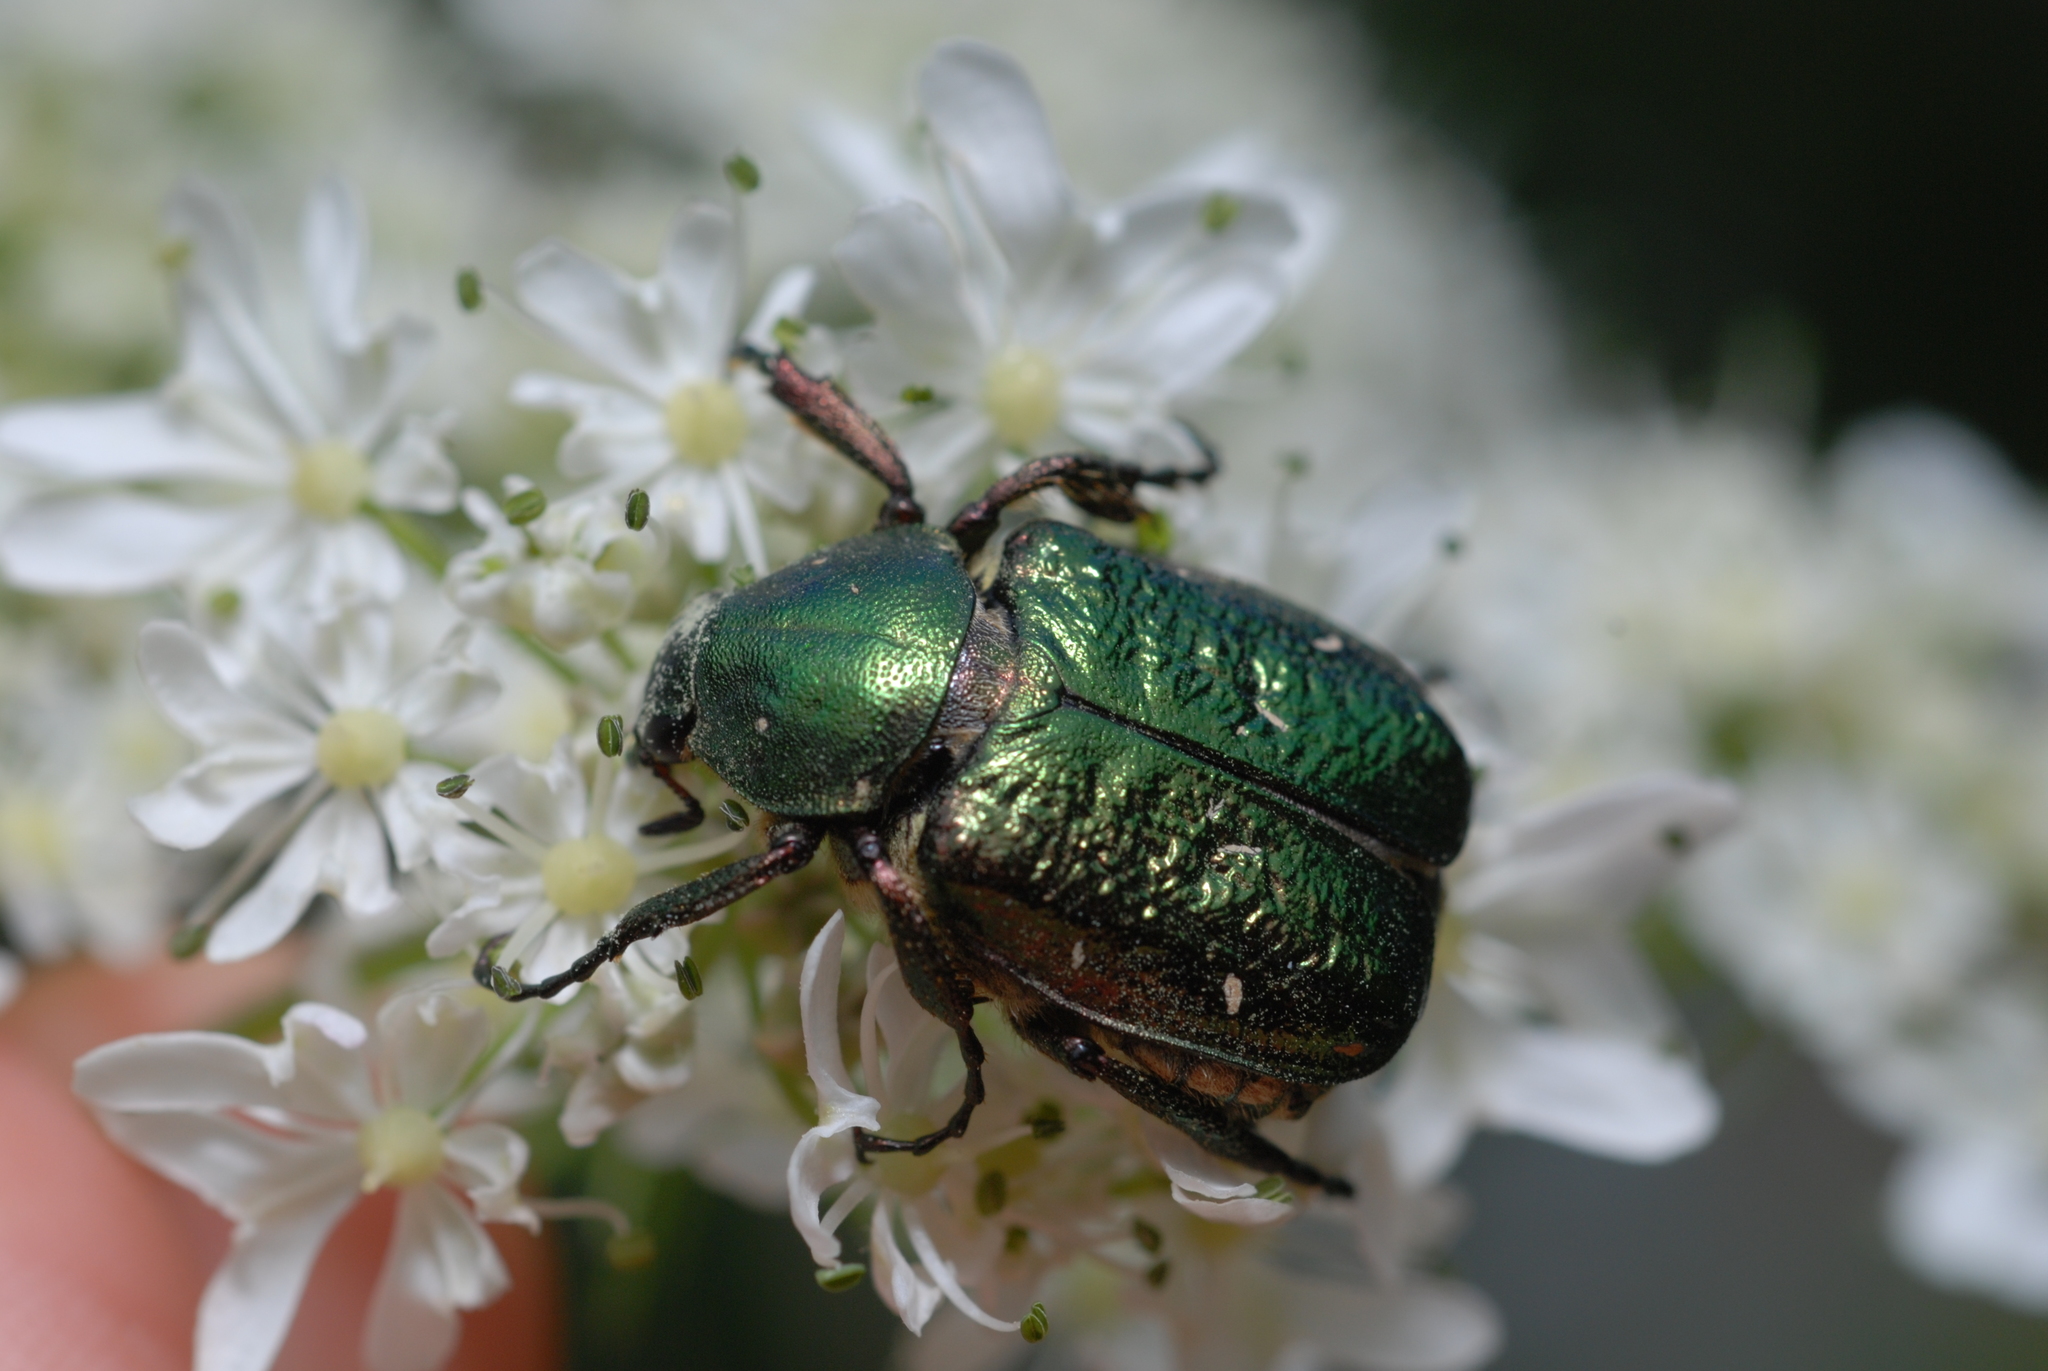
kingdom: Animalia
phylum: Arthropoda
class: Insecta
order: Coleoptera
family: Scarabaeidae
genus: Gnorimus
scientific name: Gnorimus nobilis
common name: Noble chafer
